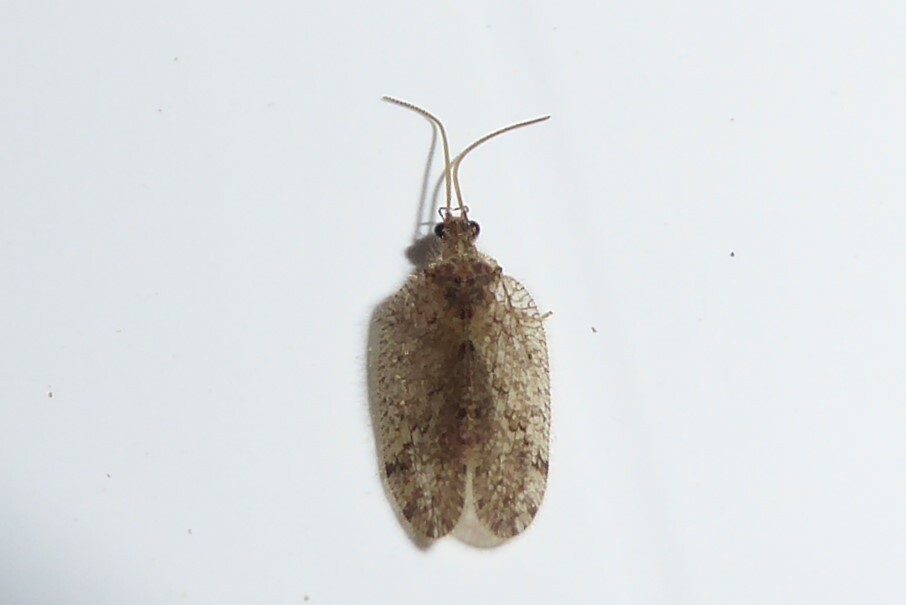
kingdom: Animalia
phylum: Arthropoda
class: Insecta
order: Neuroptera
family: Hemerobiidae
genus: Psectra
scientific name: Psectra nakaharai
